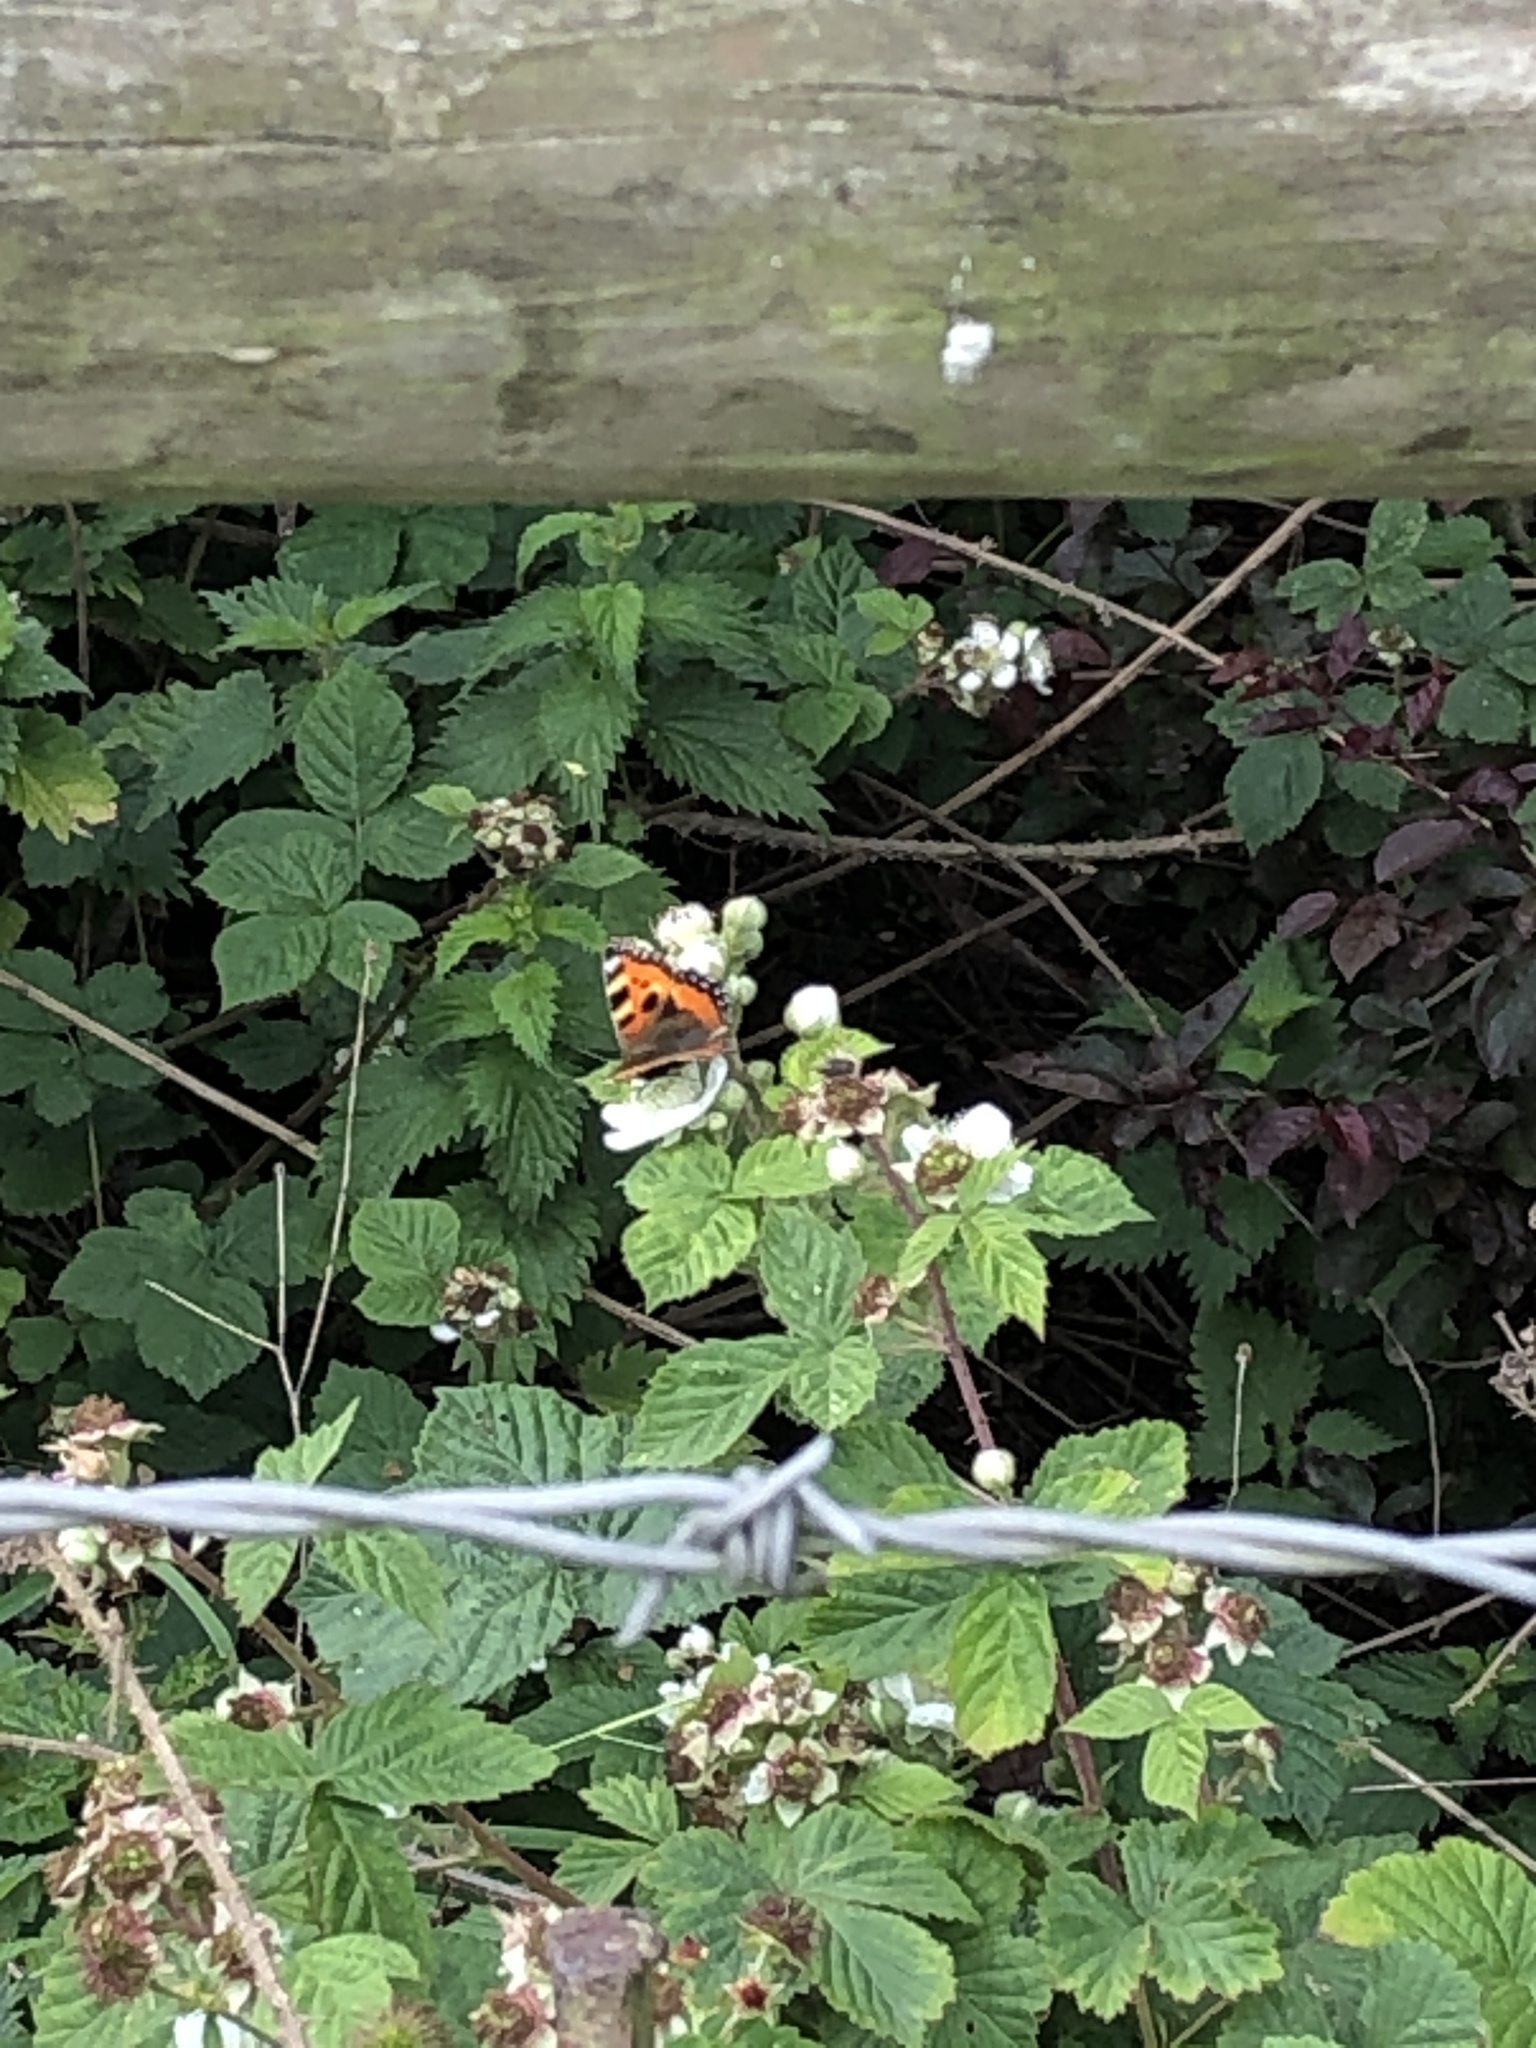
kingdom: Animalia
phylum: Arthropoda
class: Insecta
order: Lepidoptera
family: Nymphalidae
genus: Aglais
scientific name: Aglais urticae
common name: Small tortoiseshell
